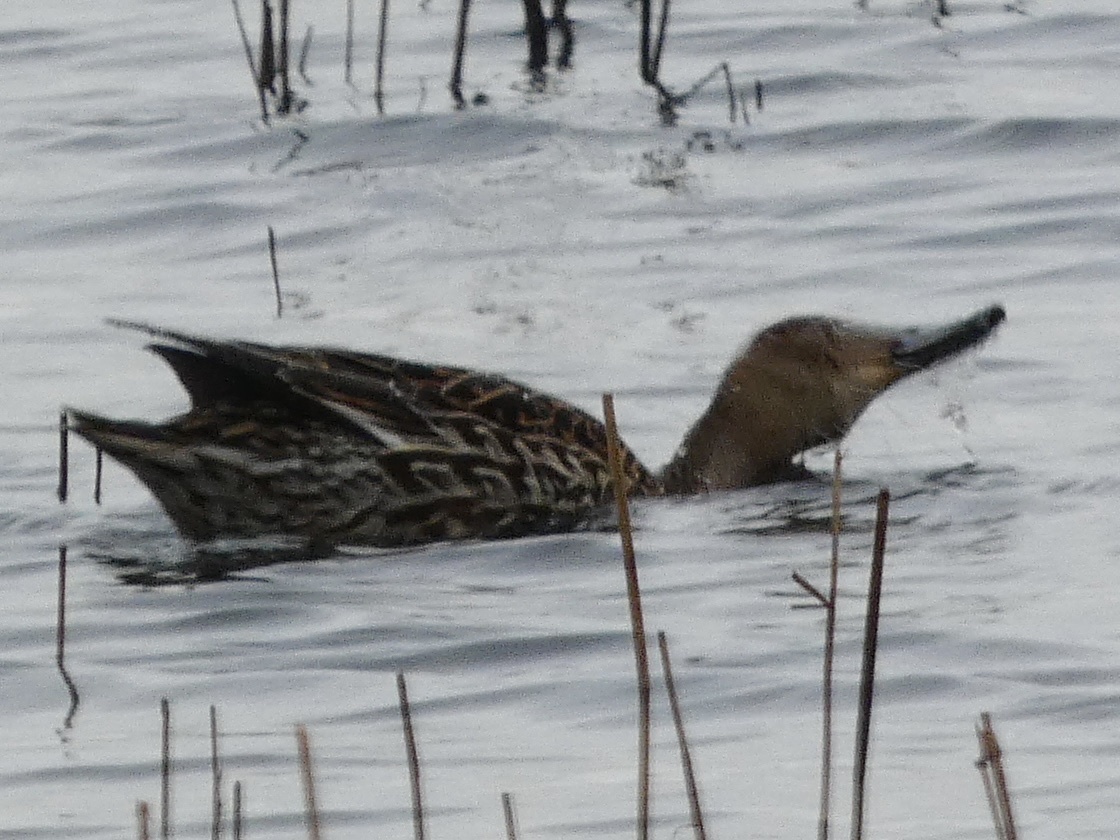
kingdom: Animalia
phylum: Chordata
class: Aves
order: Anseriformes
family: Anatidae
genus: Anas
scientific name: Anas acuta
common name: Northern pintail
